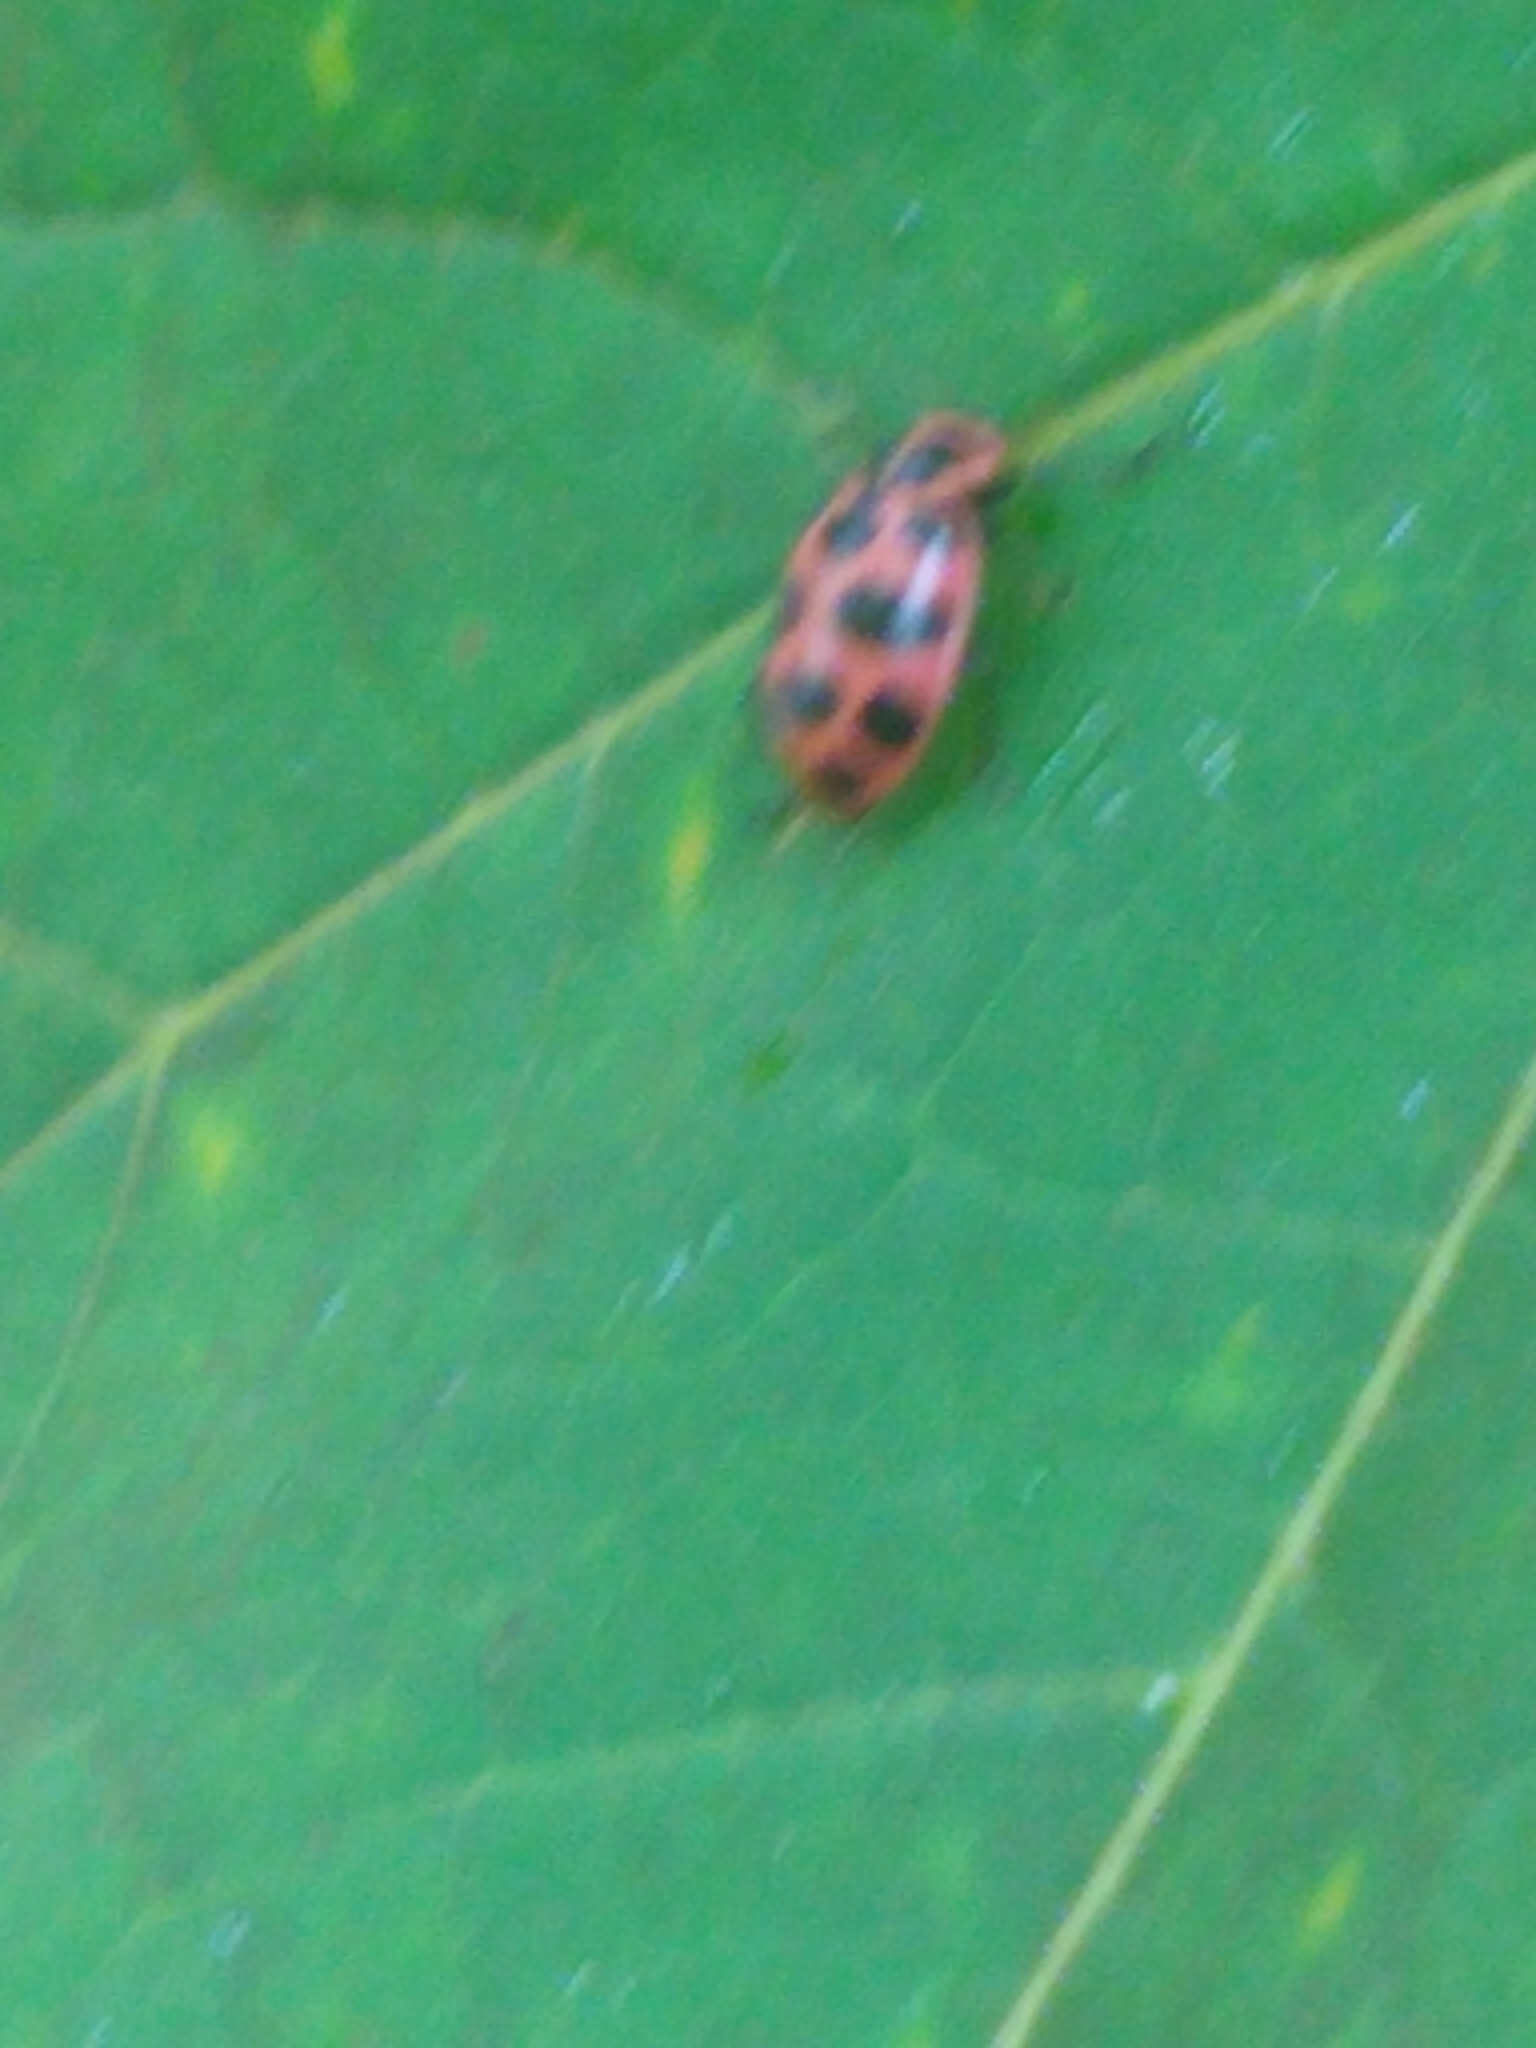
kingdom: Animalia
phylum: Arthropoda
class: Insecta
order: Coleoptera
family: Coccinellidae
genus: Coleomegilla
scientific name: Coleomegilla maculata
